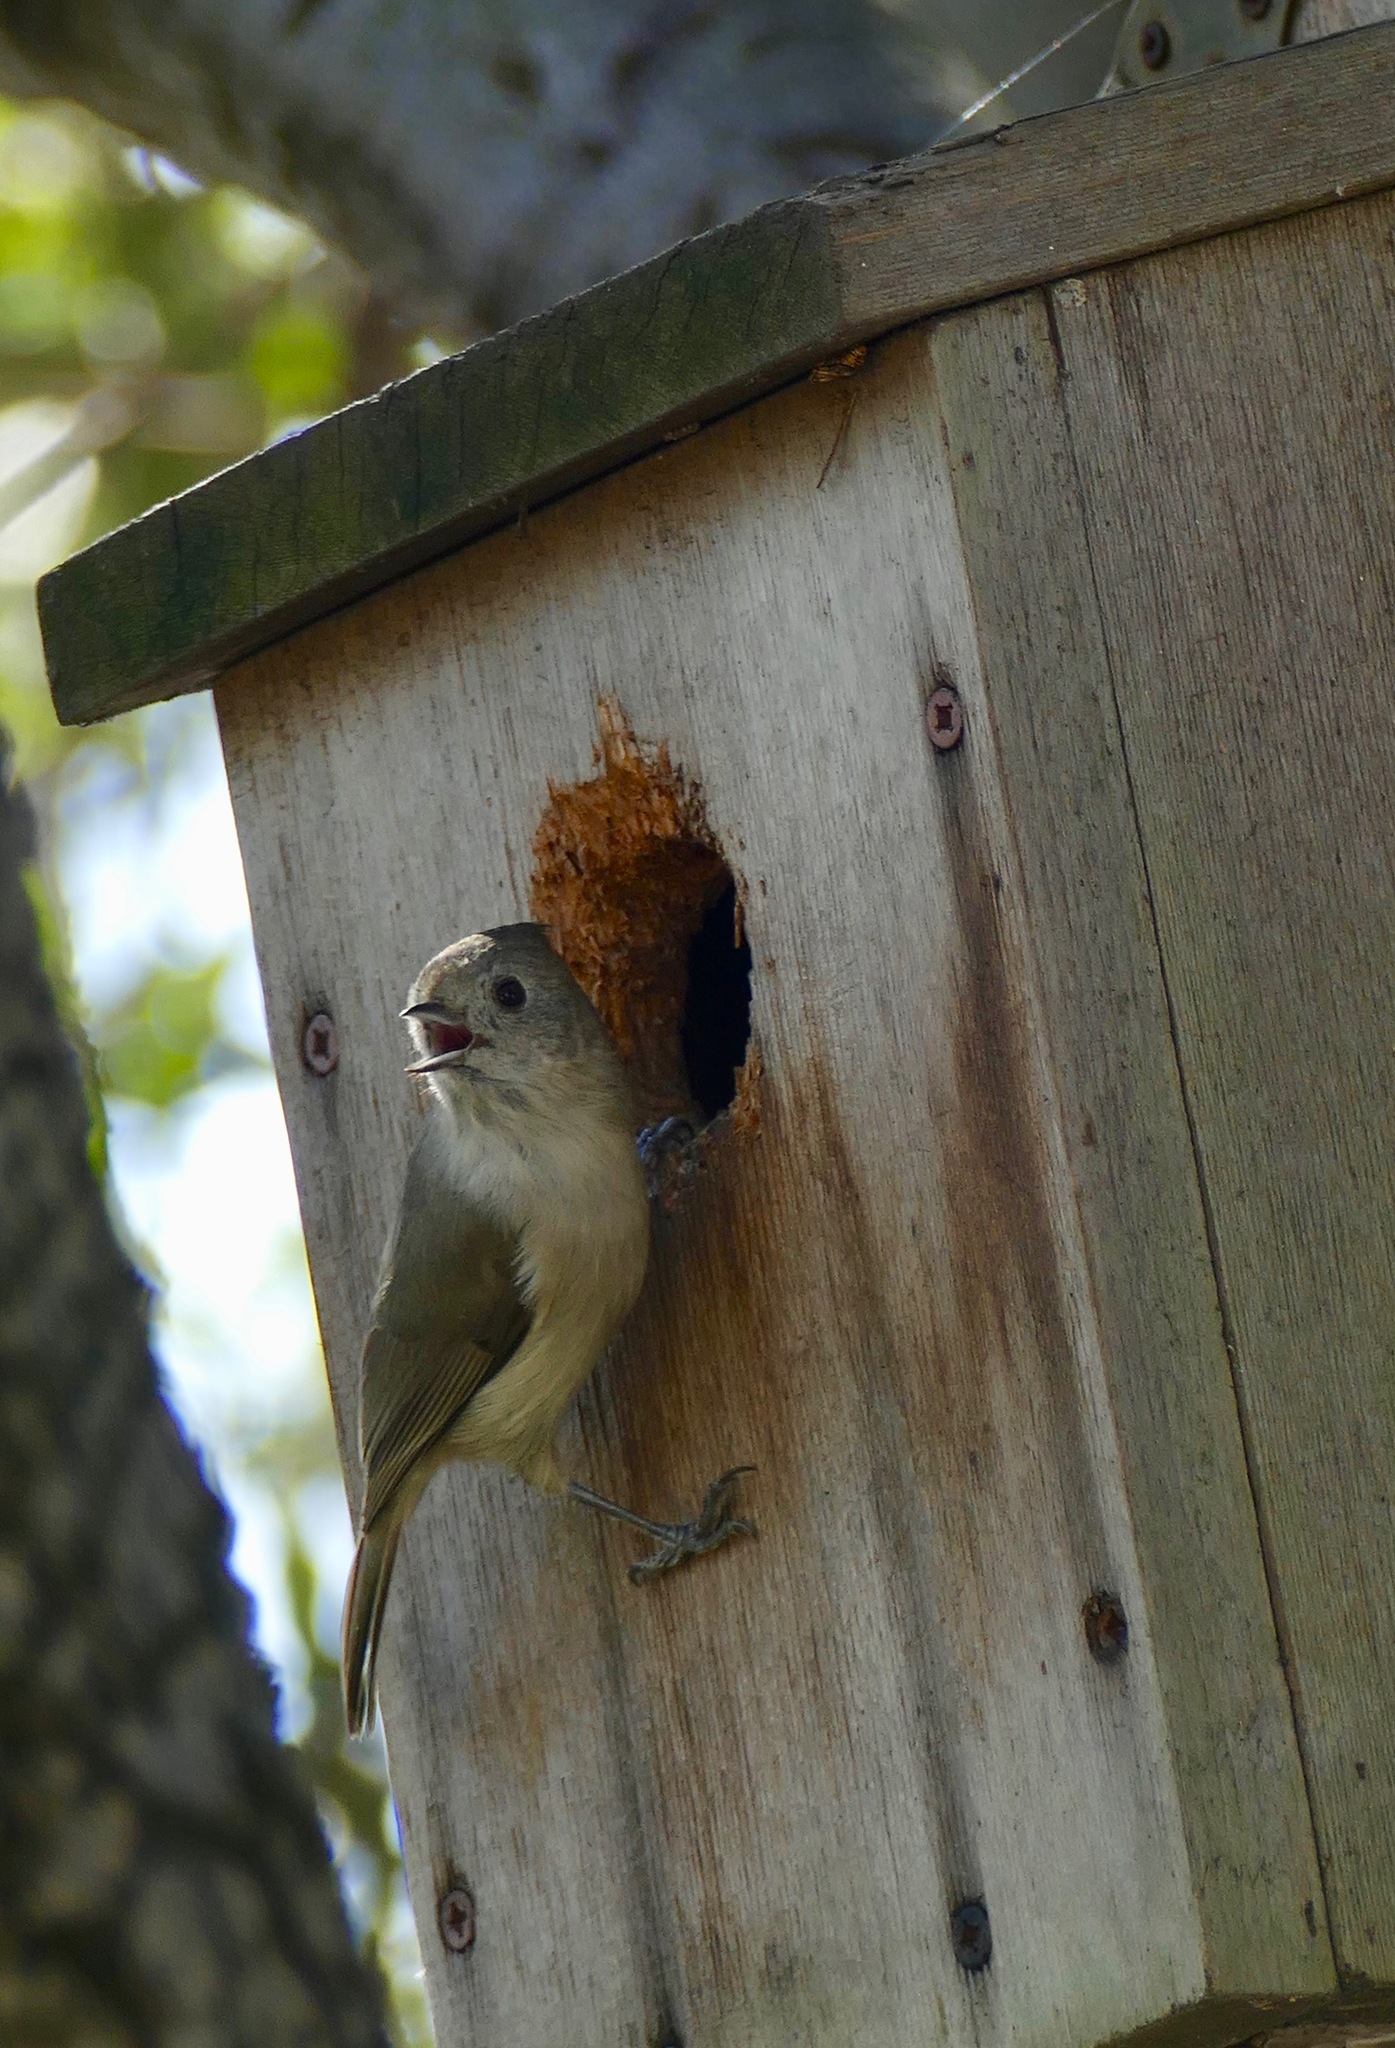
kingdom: Animalia
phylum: Chordata
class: Aves
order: Passeriformes
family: Paridae
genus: Baeolophus
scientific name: Baeolophus inornatus
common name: Oak titmouse
